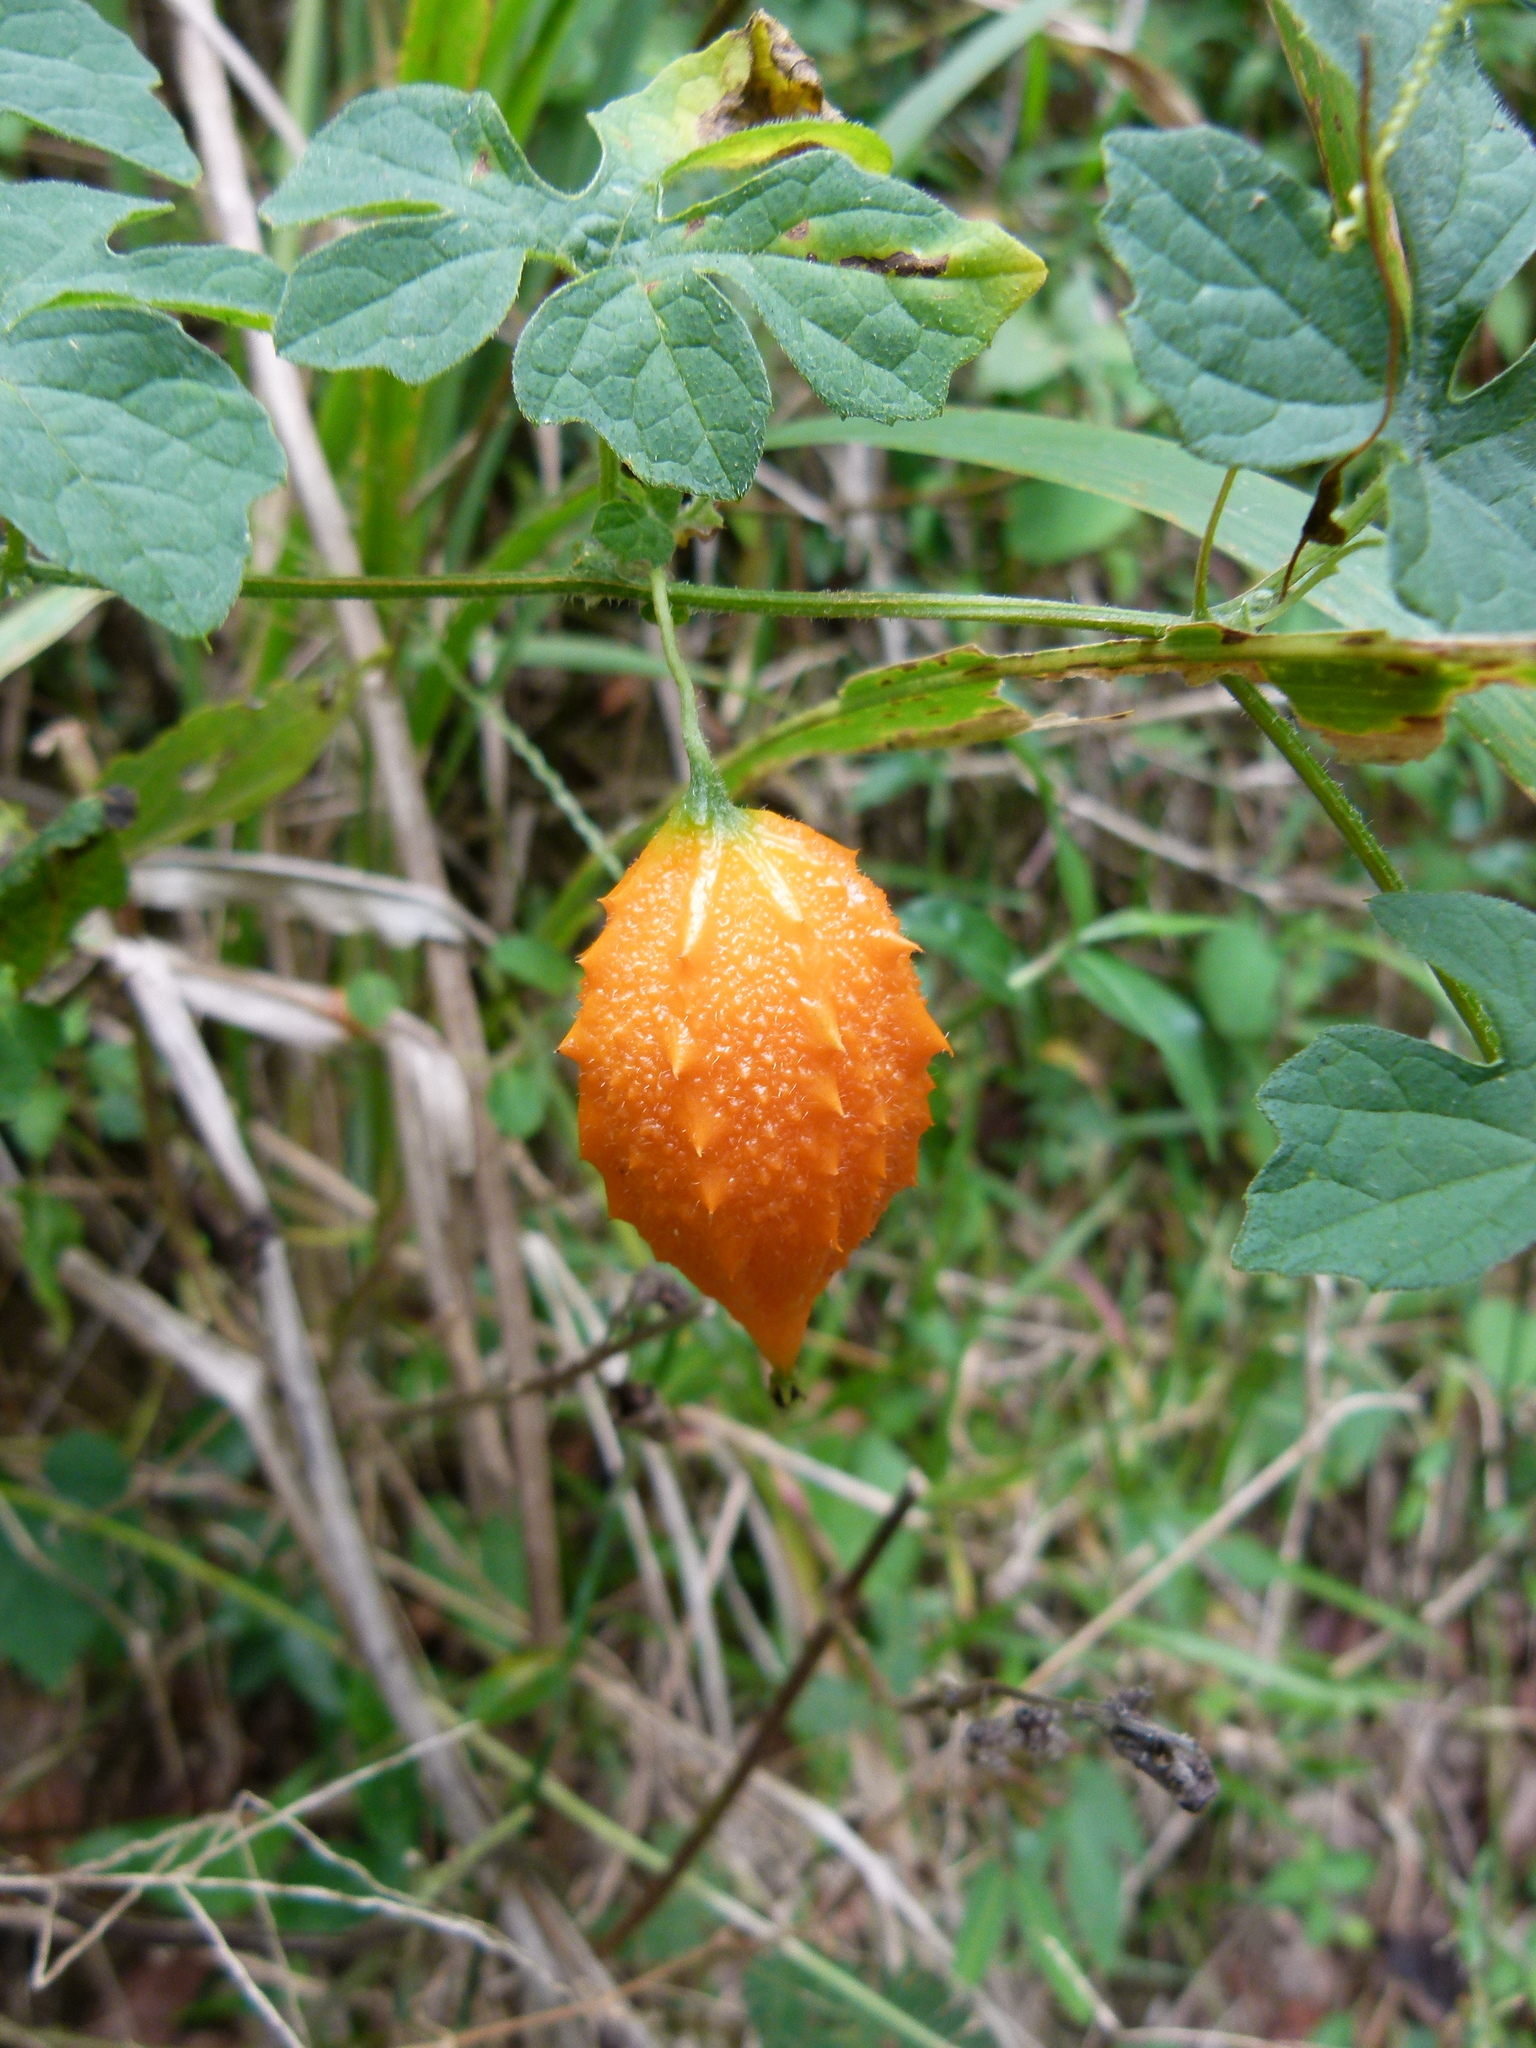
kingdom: Plantae
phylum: Tracheophyta
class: Magnoliopsida
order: Cucurbitales
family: Cucurbitaceae
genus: Momordica
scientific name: Momordica charantia
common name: Balsampear
